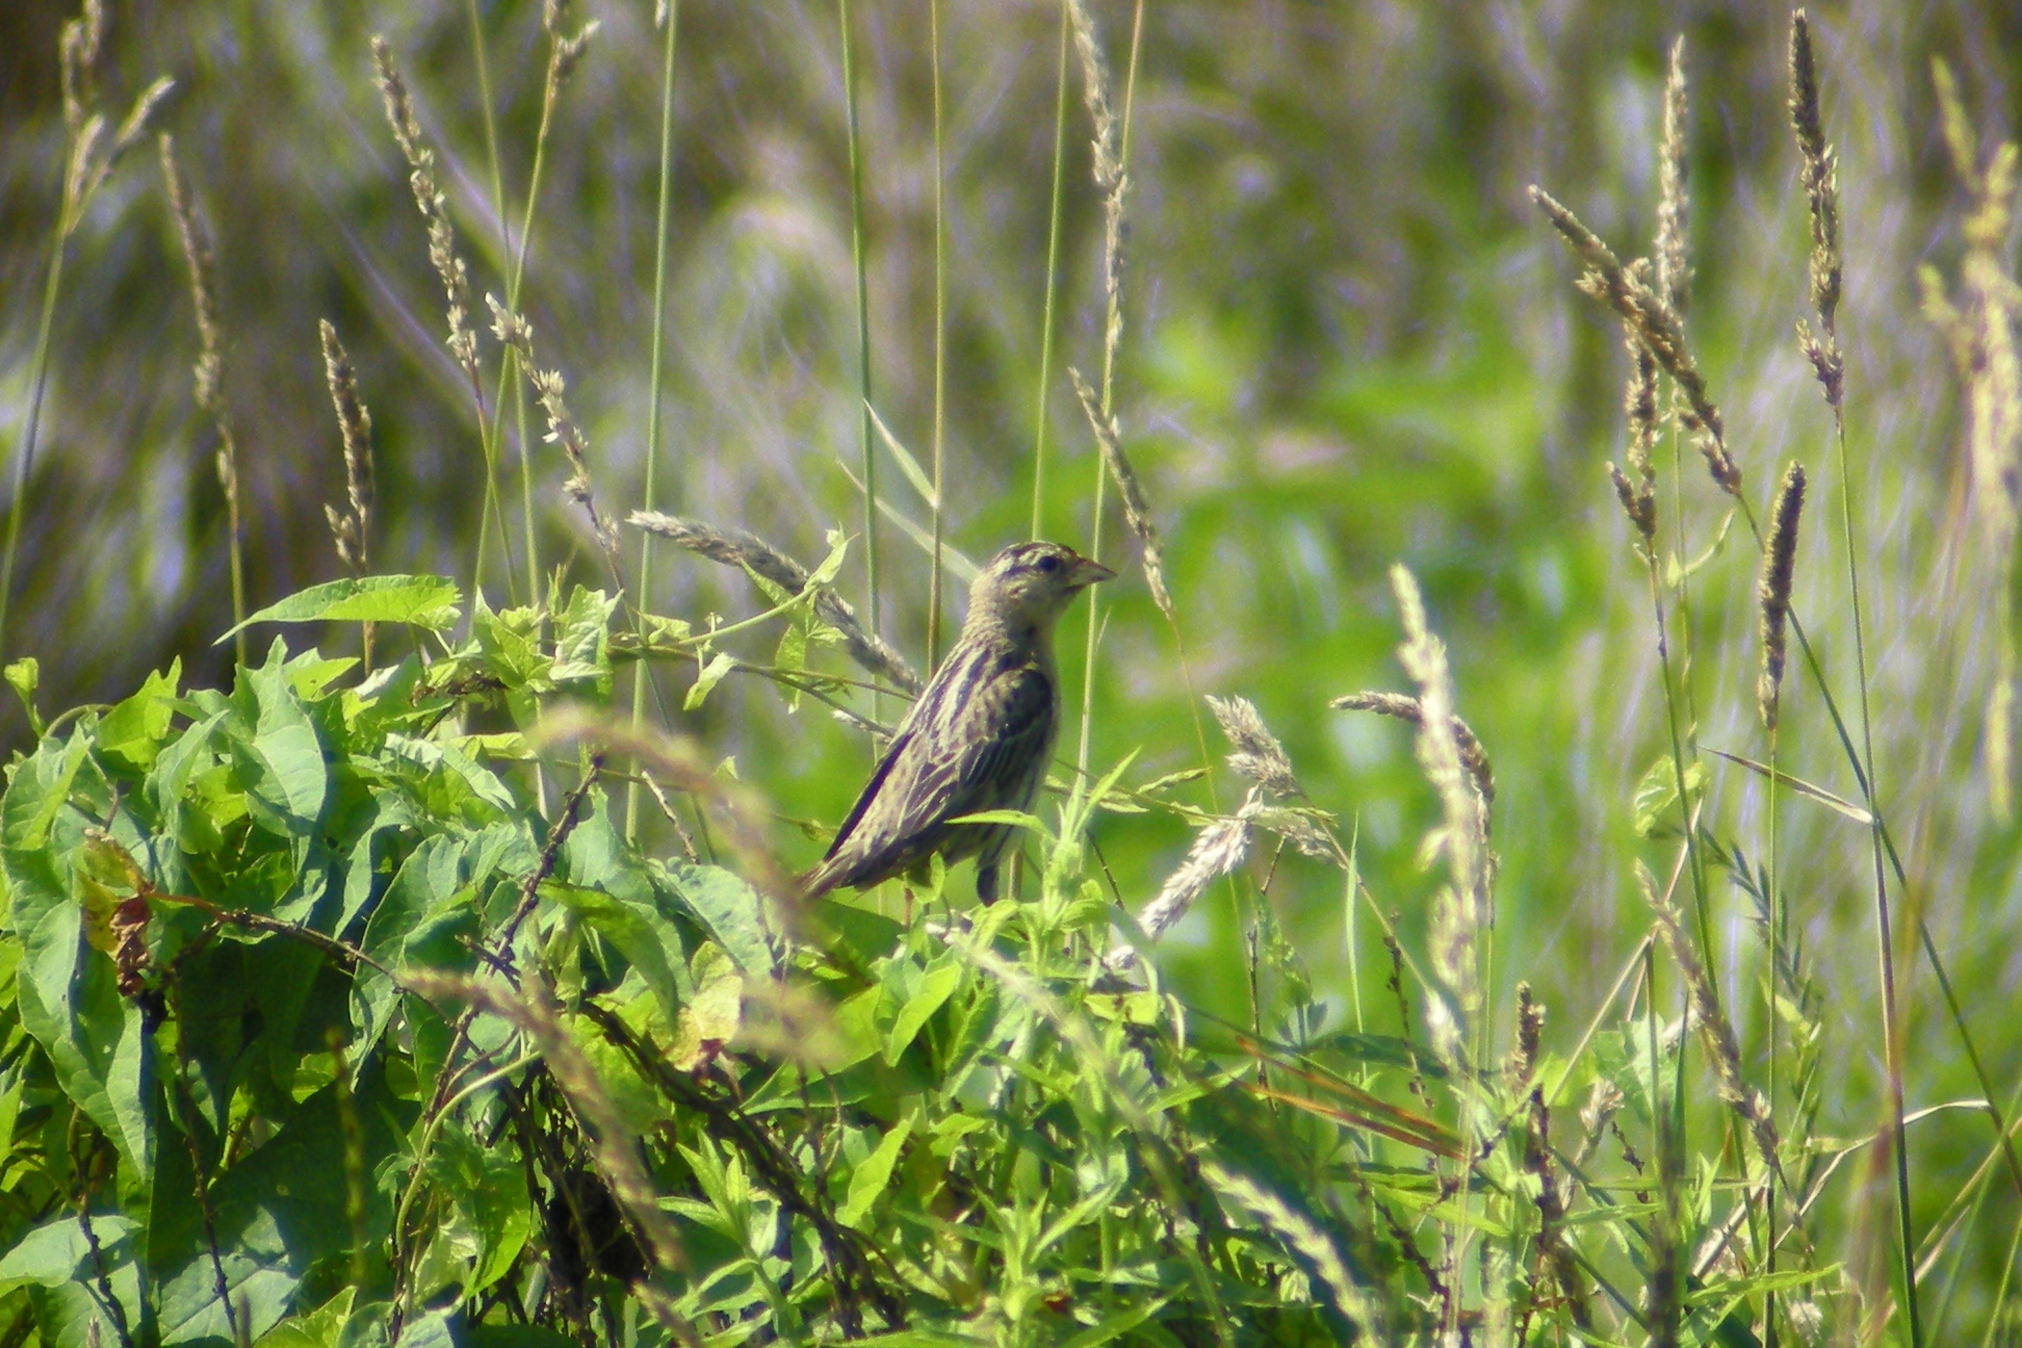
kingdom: Animalia
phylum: Chordata
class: Aves
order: Passeriformes
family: Icteridae
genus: Dolichonyx
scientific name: Dolichonyx oryzivorus
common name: Bobolink
